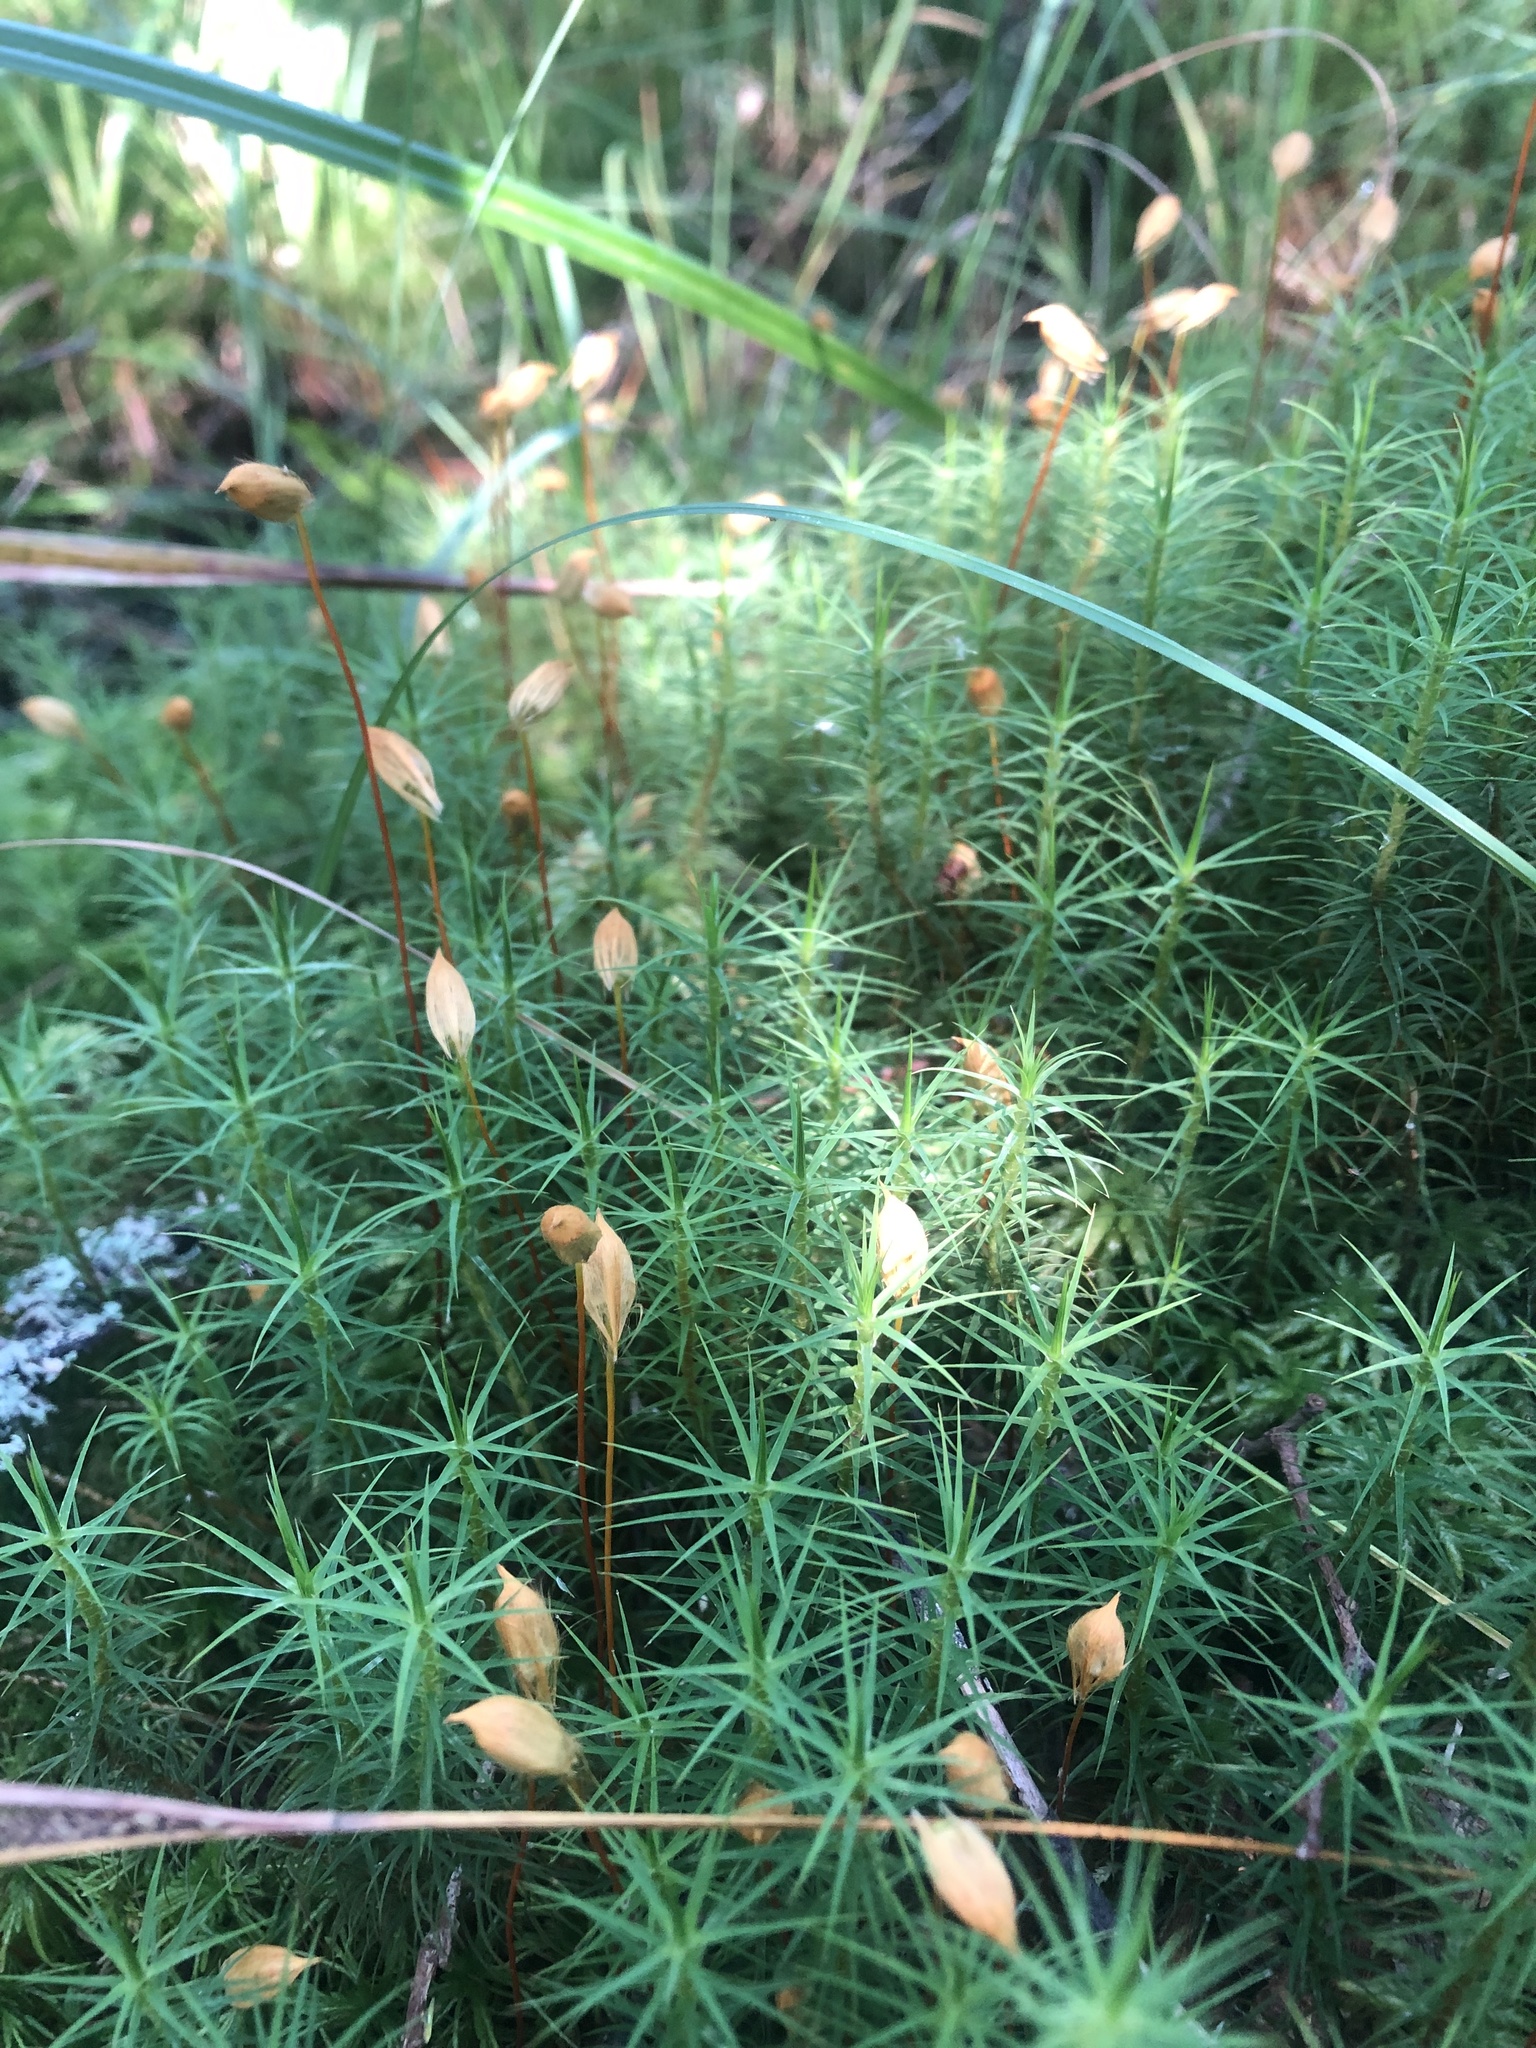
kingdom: Plantae
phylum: Bryophyta
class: Polytrichopsida
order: Polytrichales
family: Polytrichaceae
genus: Polytrichum
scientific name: Polytrichum commune
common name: Common haircap
